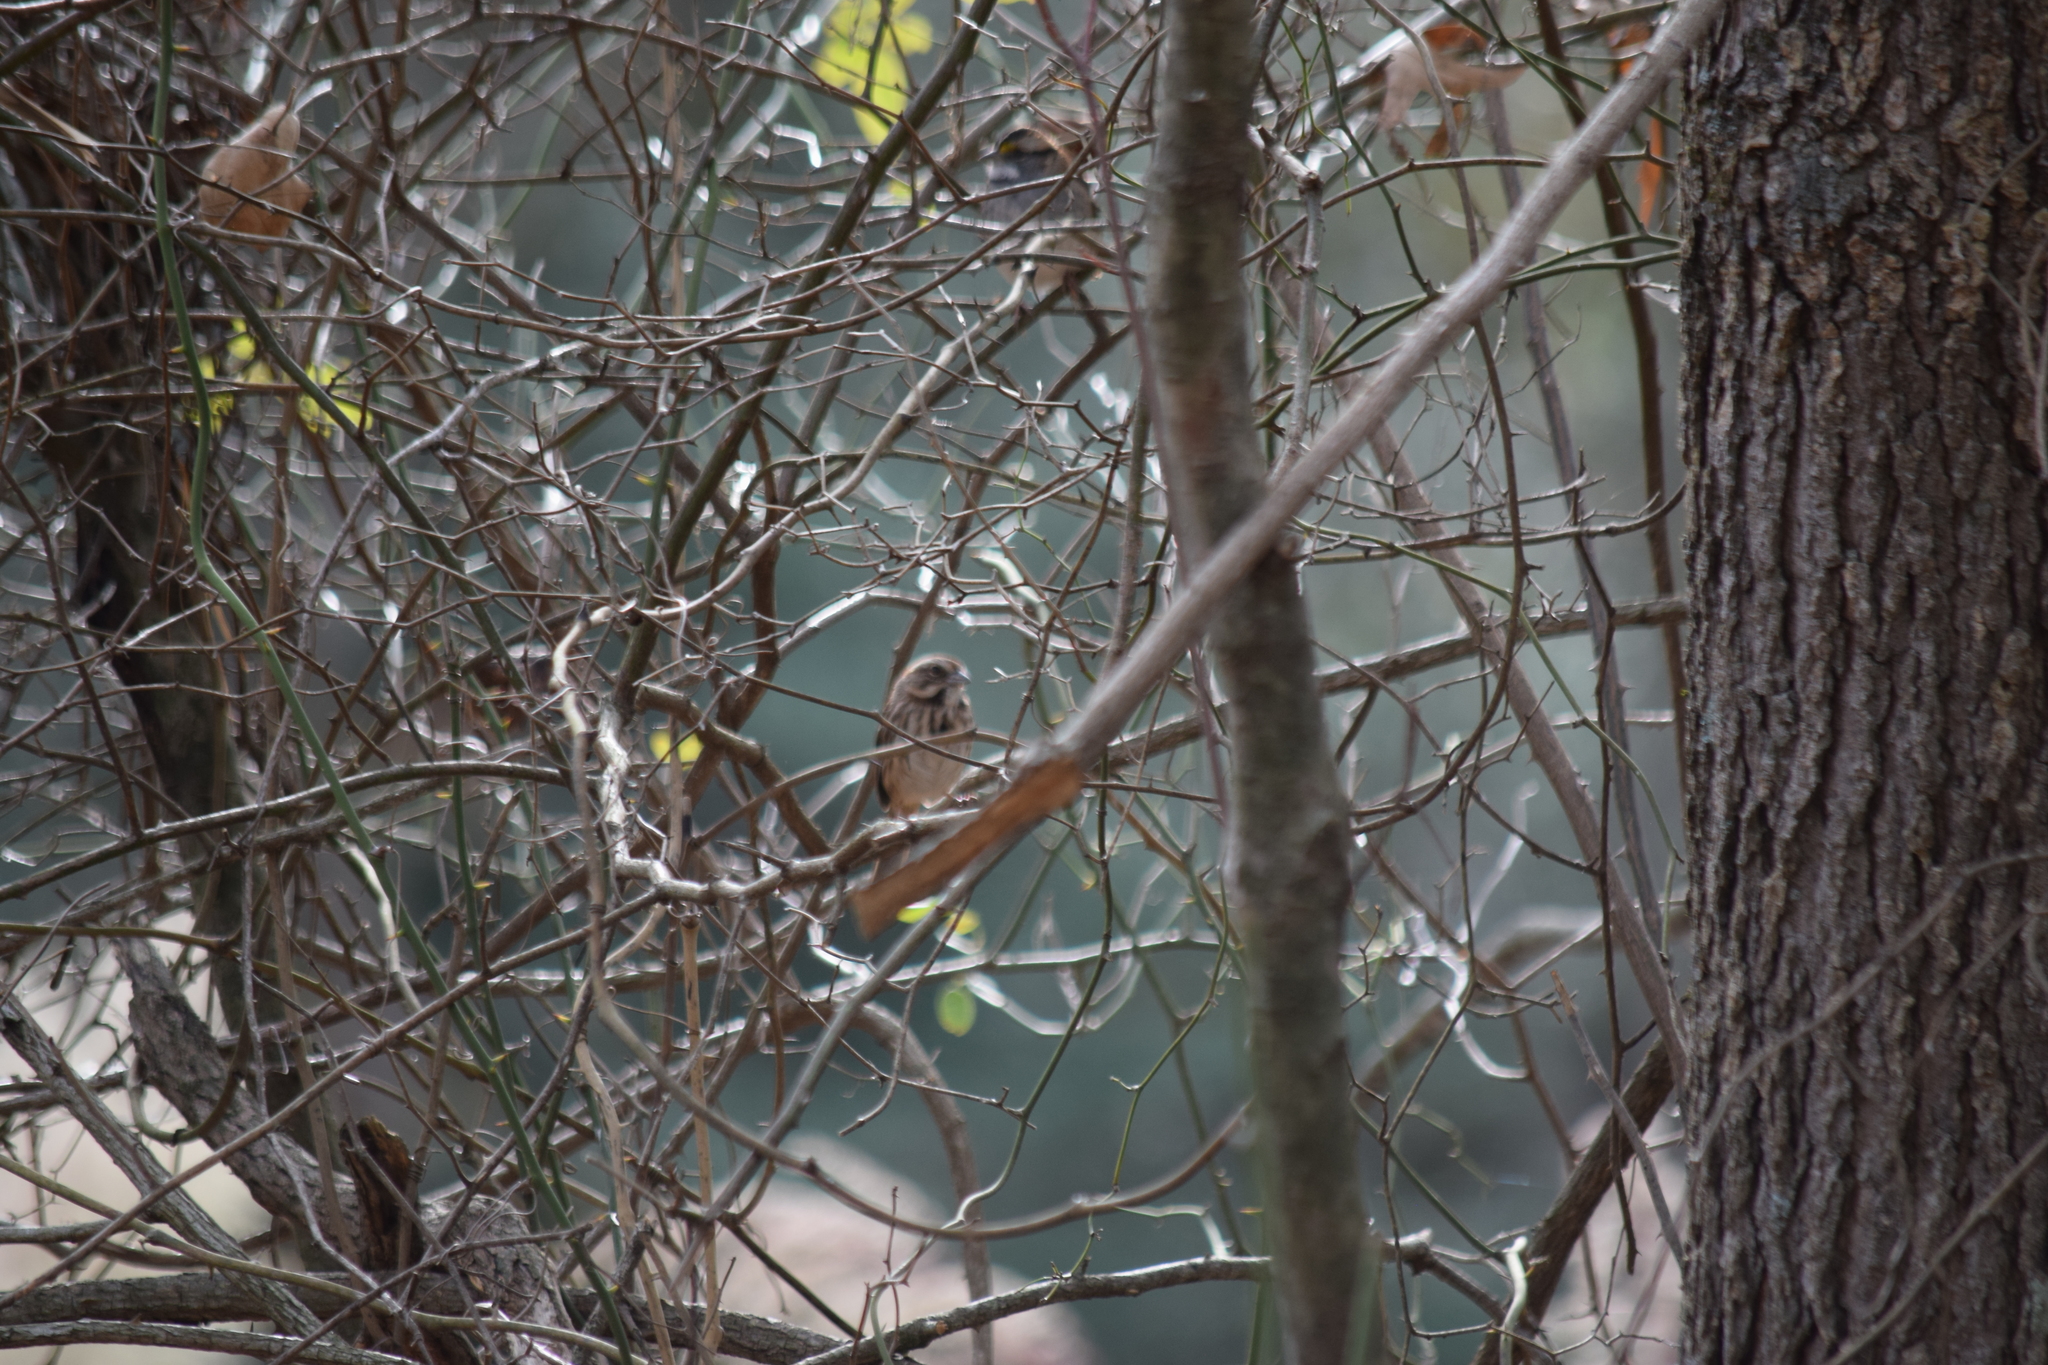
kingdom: Animalia
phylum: Chordata
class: Aves
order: Passeriformes
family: Passerellidae
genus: Melospiza
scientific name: Melospiza melodia
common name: Song sparrow
